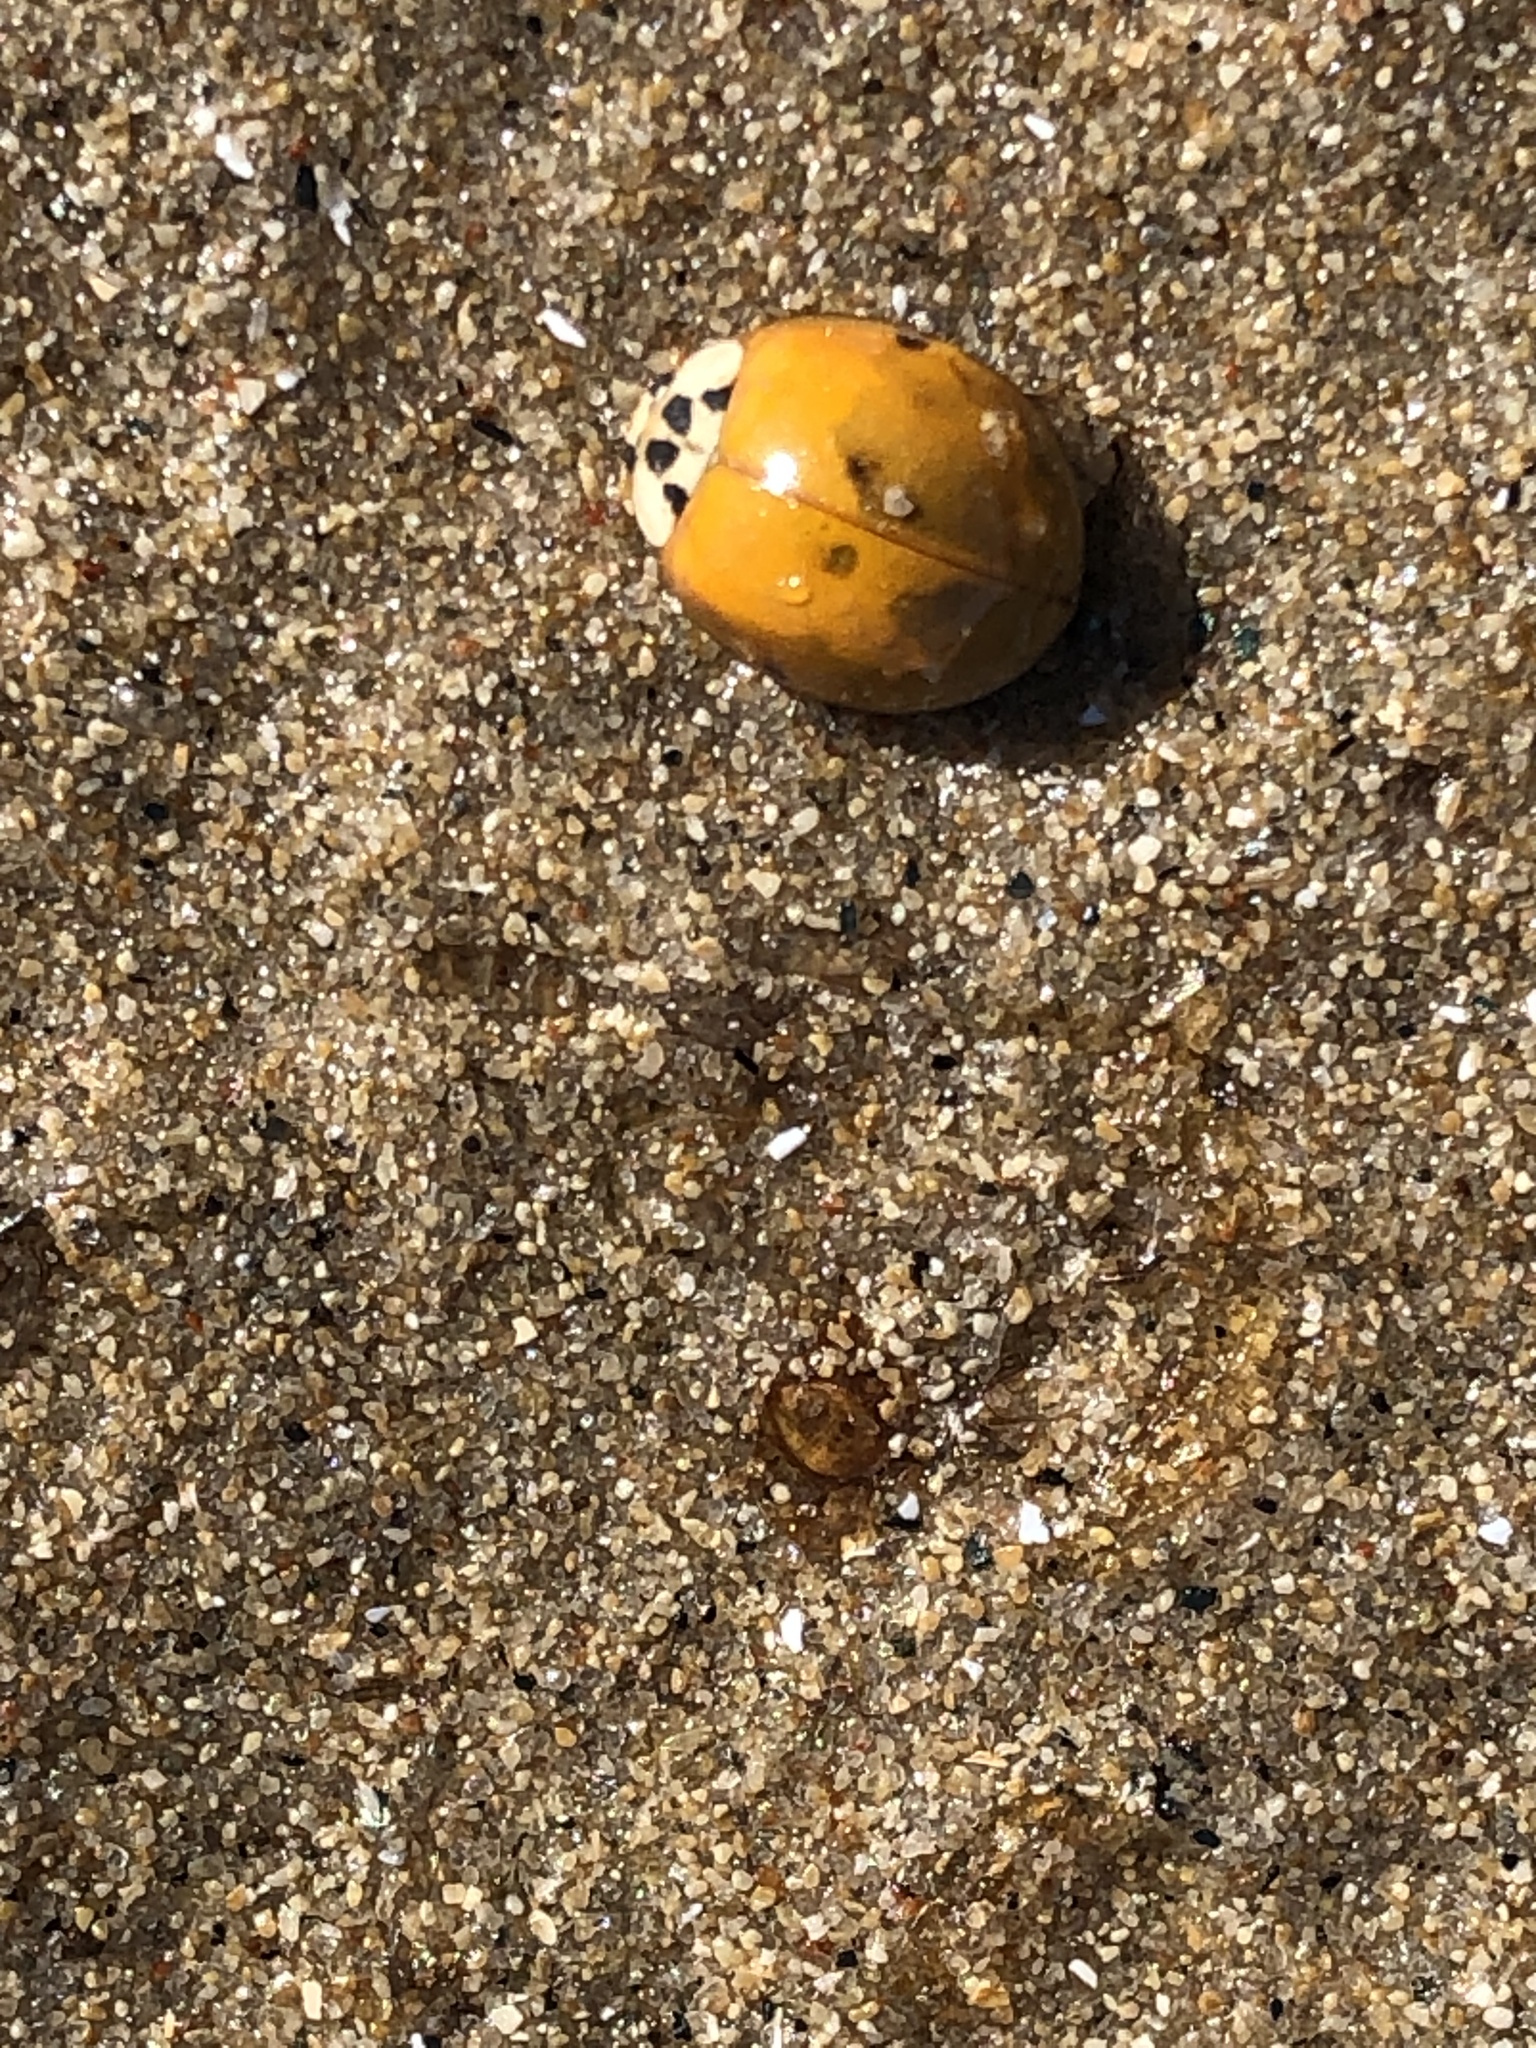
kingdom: Animalia
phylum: Arthropoda
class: Insecta
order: Coleoptera
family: Coccinellidae
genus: Harmonia
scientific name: Harmonia axyridis
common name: Harlequin ladybird
